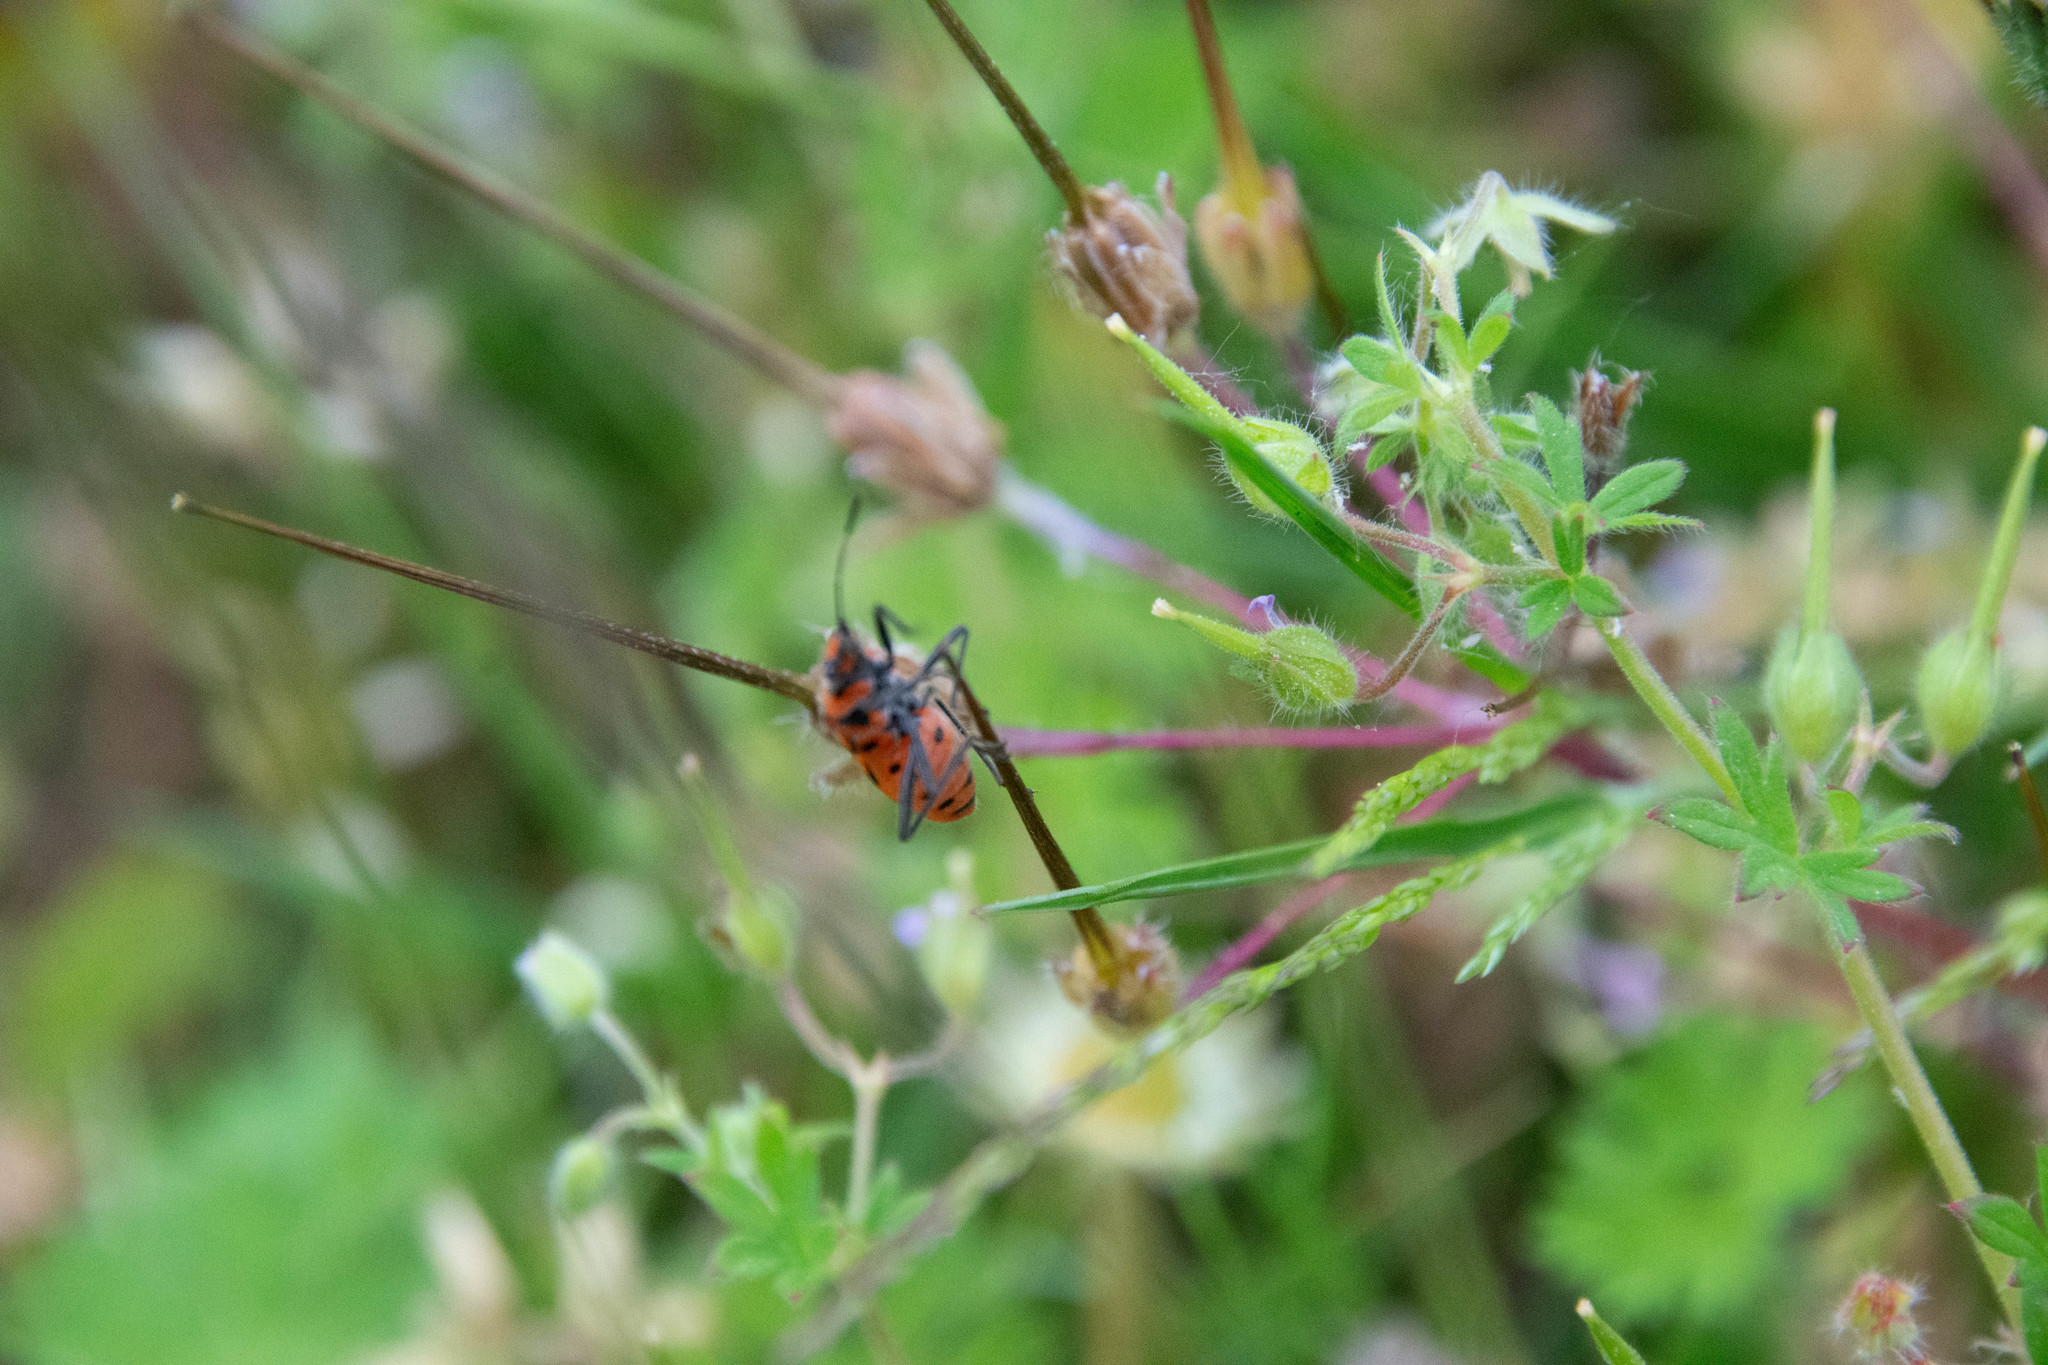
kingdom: Animalia
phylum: Arthropoda
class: Insecta
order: Hemiptera
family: Rhopalidae
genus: Corizus
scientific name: Corizus hyoscyami
